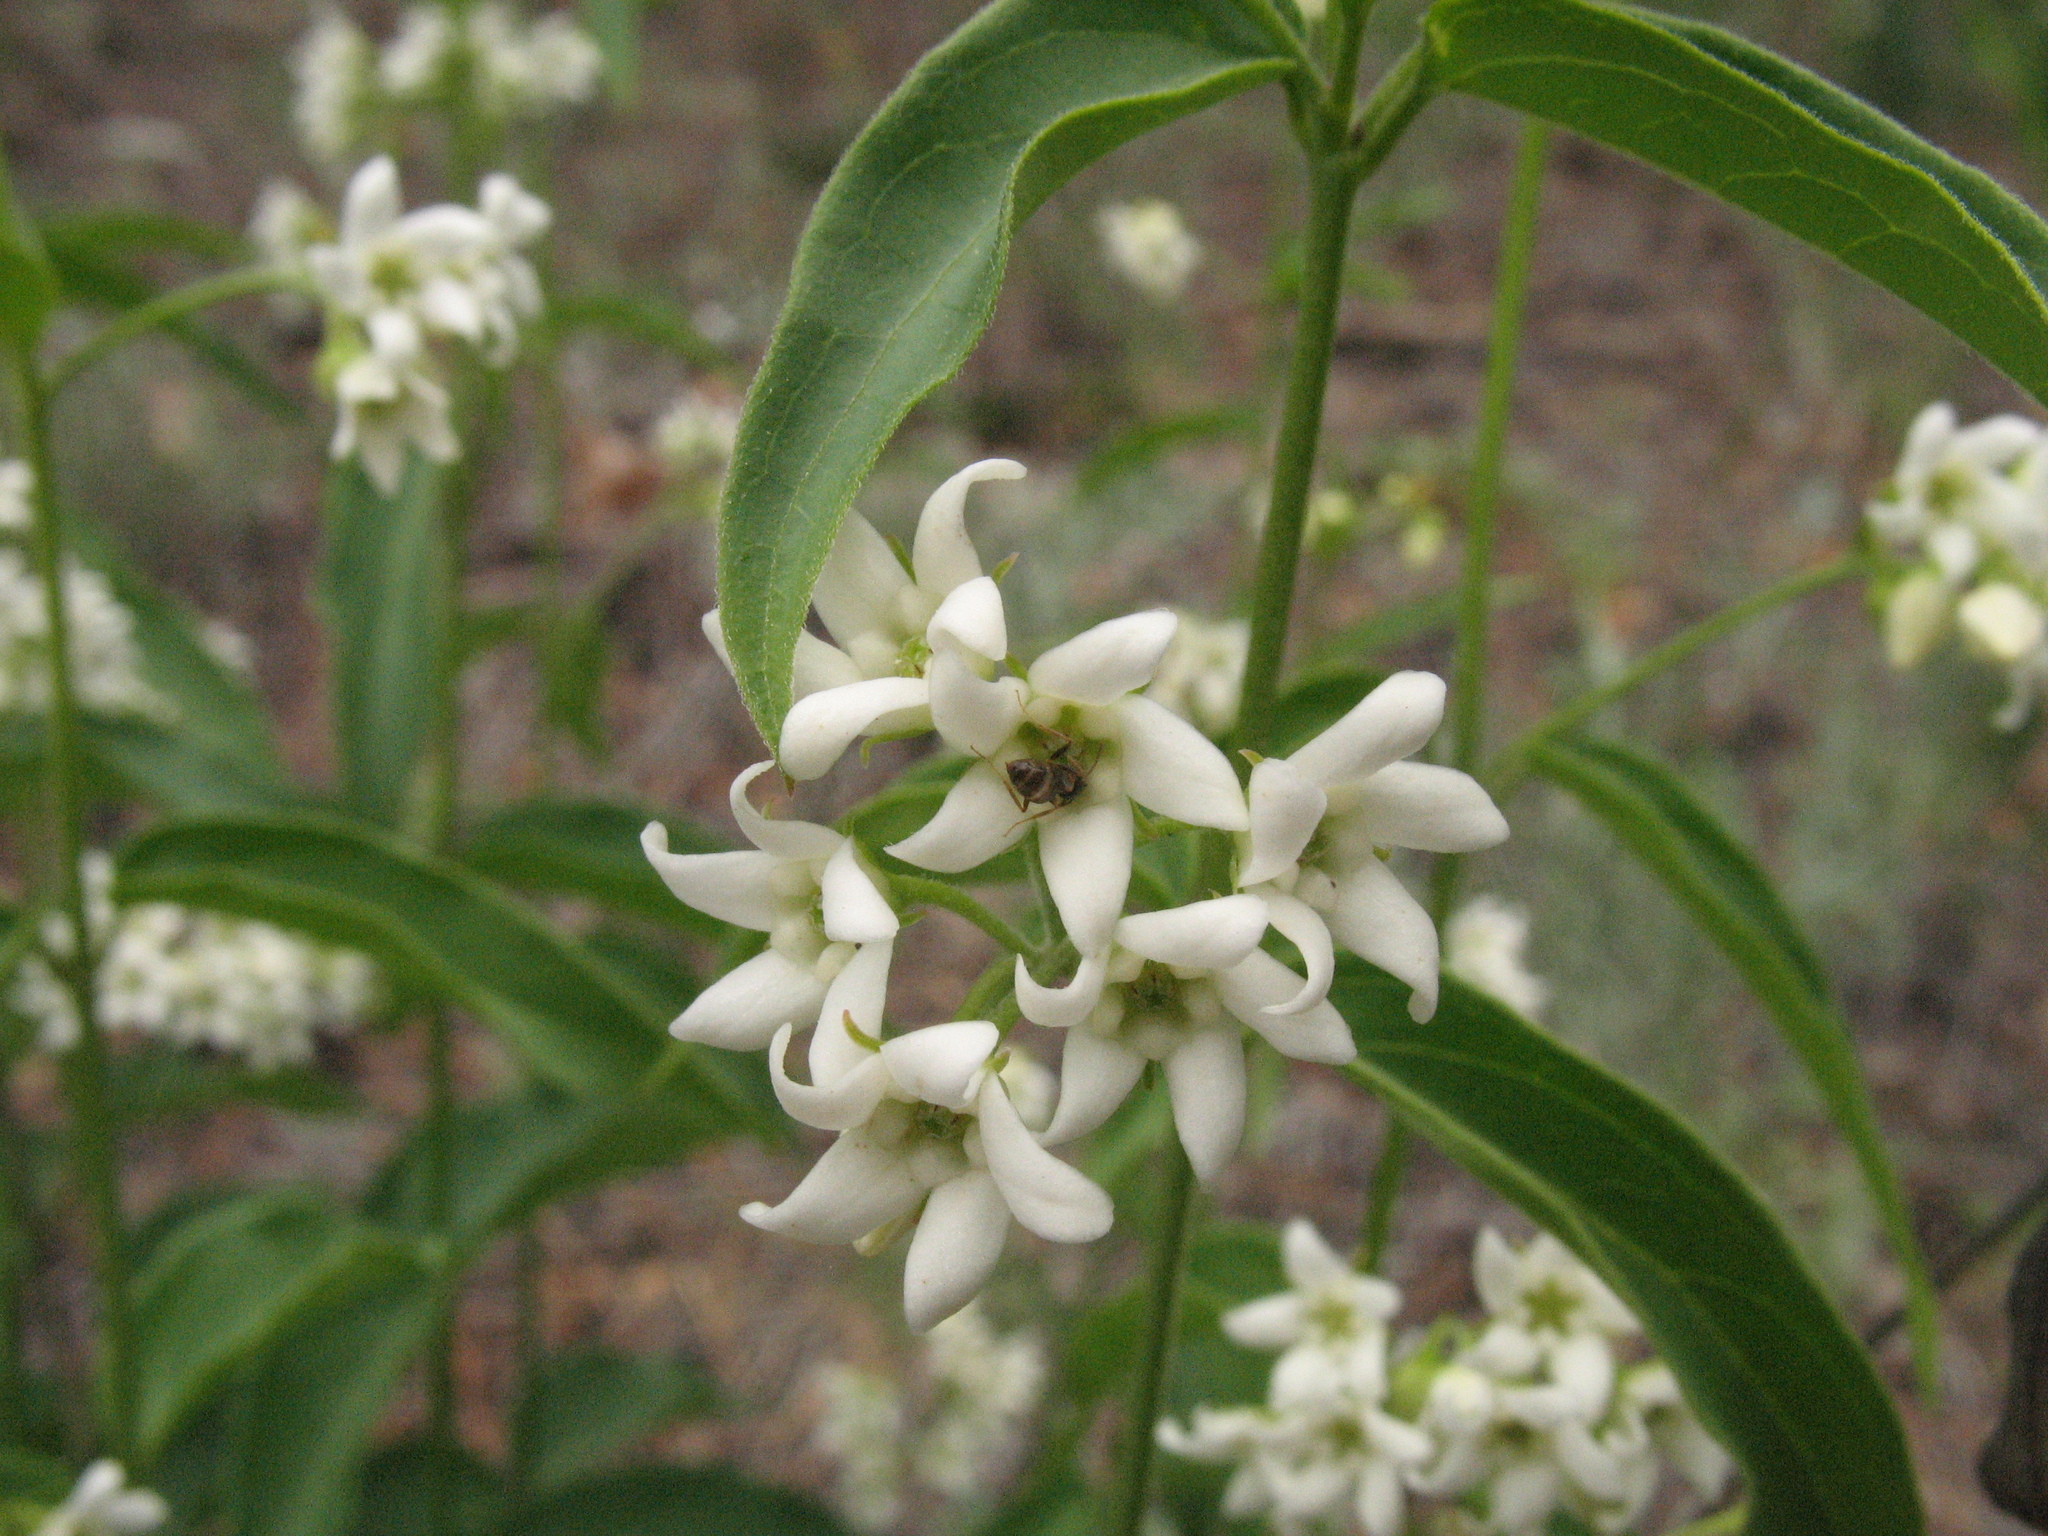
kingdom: Plantae
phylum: Tracheophyta
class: Magnoliopsida
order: Gentianales
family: Apocynaceae
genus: Vincetoxicum
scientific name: Vincetoxicum hirundinaria
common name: White swallowwort
